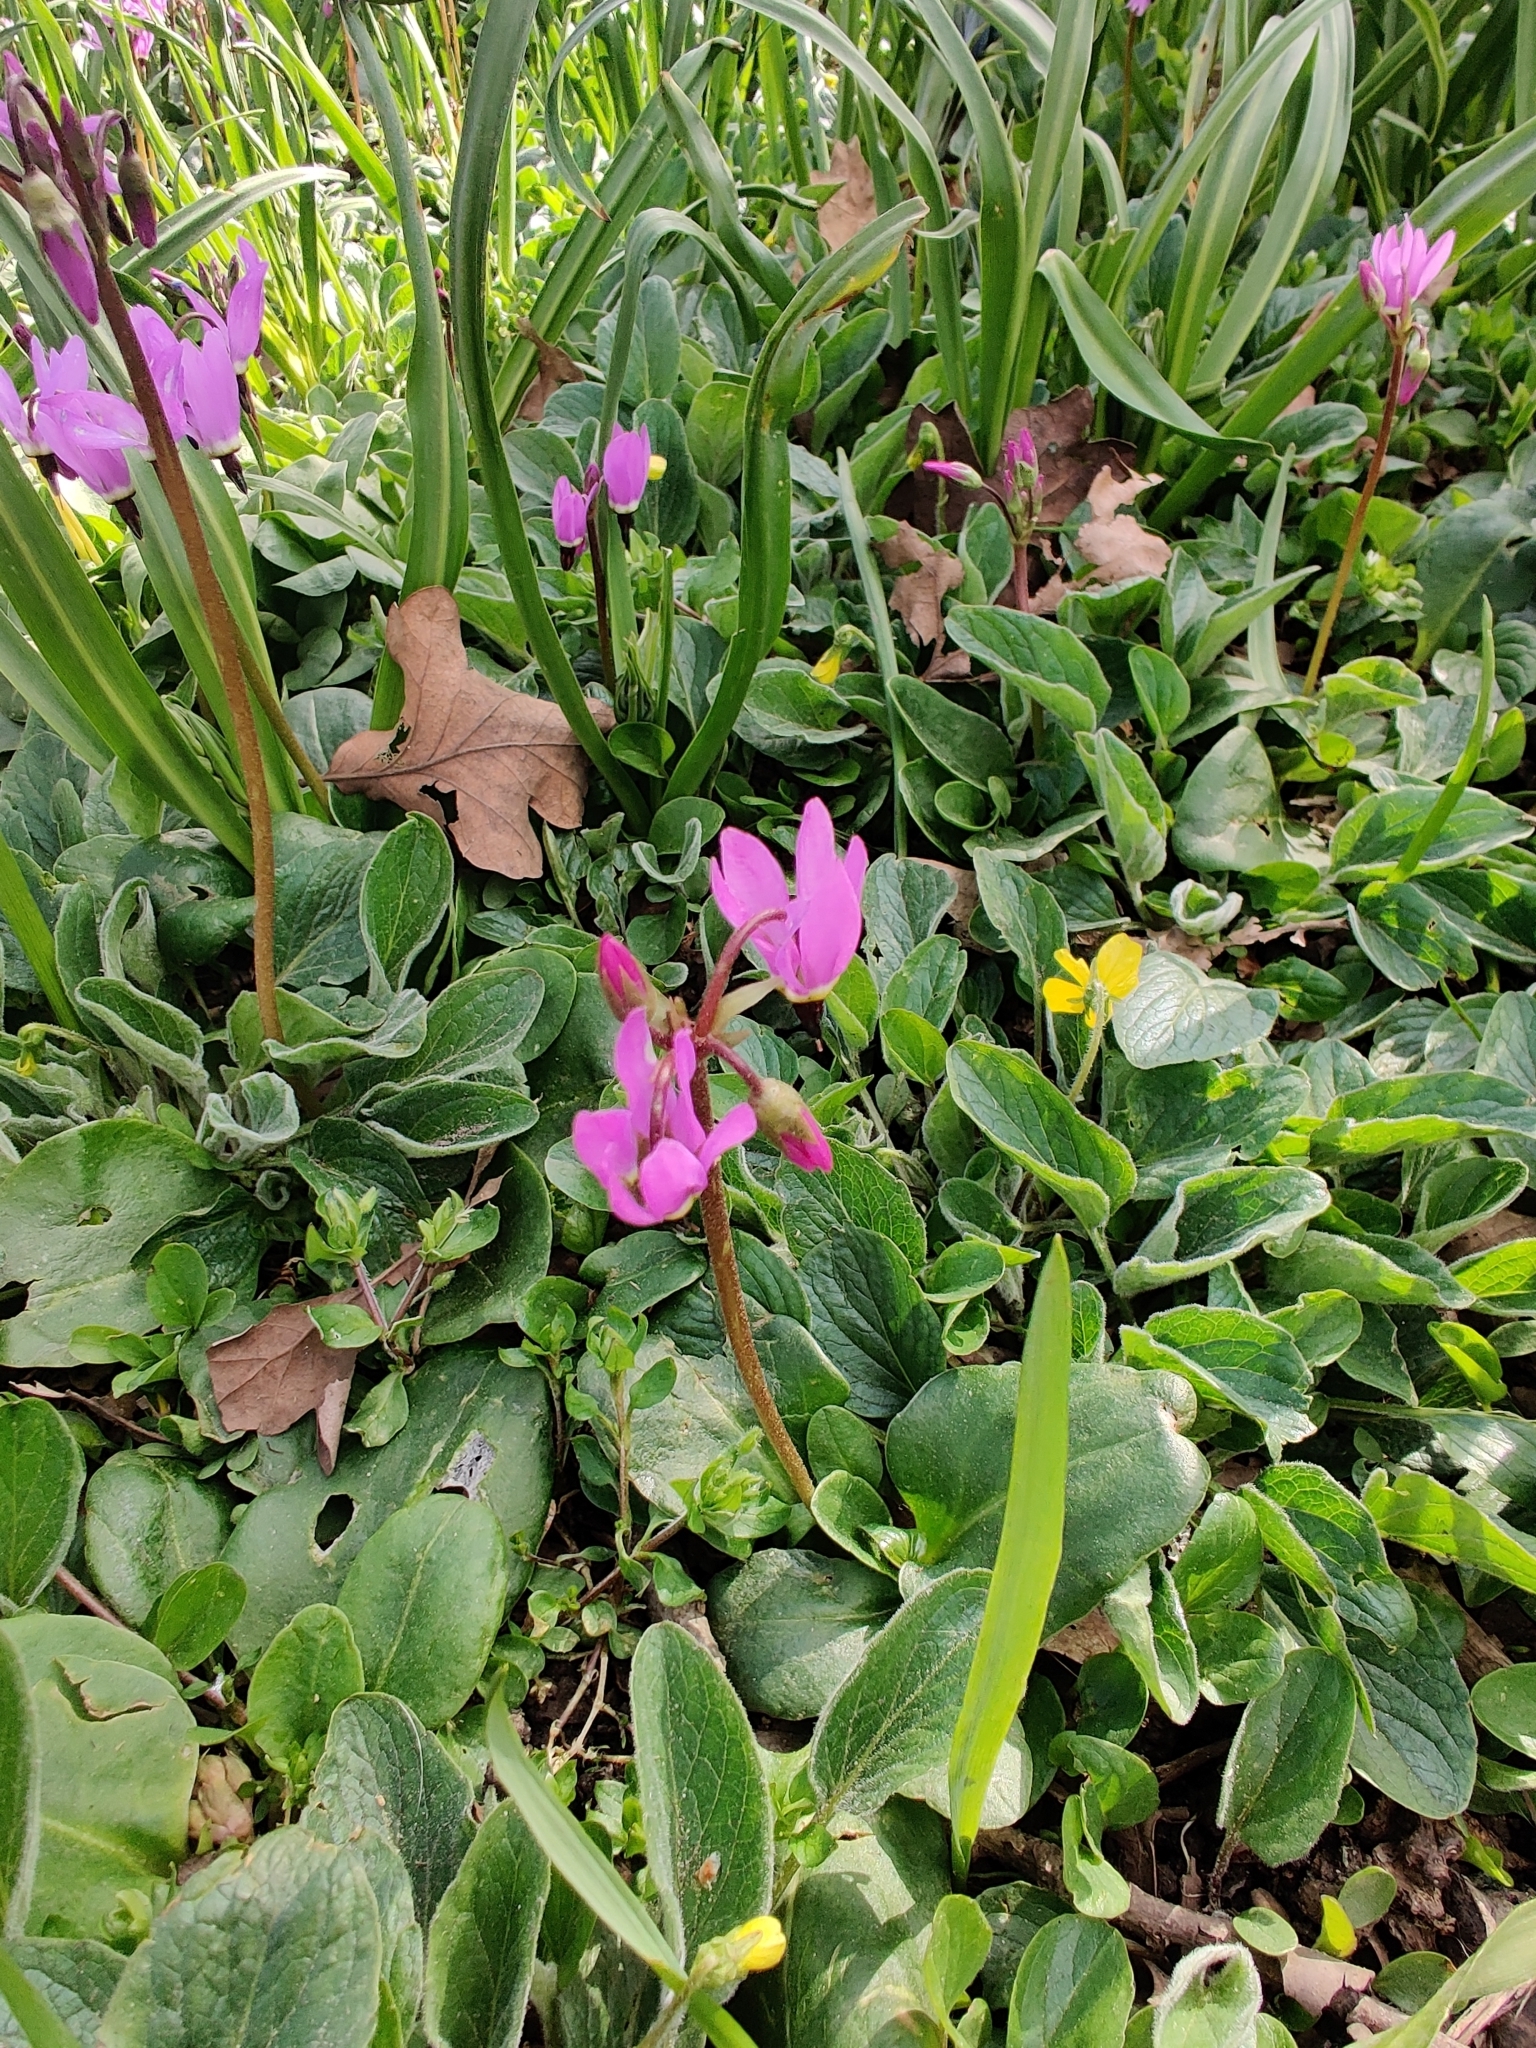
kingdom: Plantae
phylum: Tracheophyta
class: Magnoliopsida
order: Ericales
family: Primulaceae
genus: Dodecatheon
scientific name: Dodecatheon hendersonii
